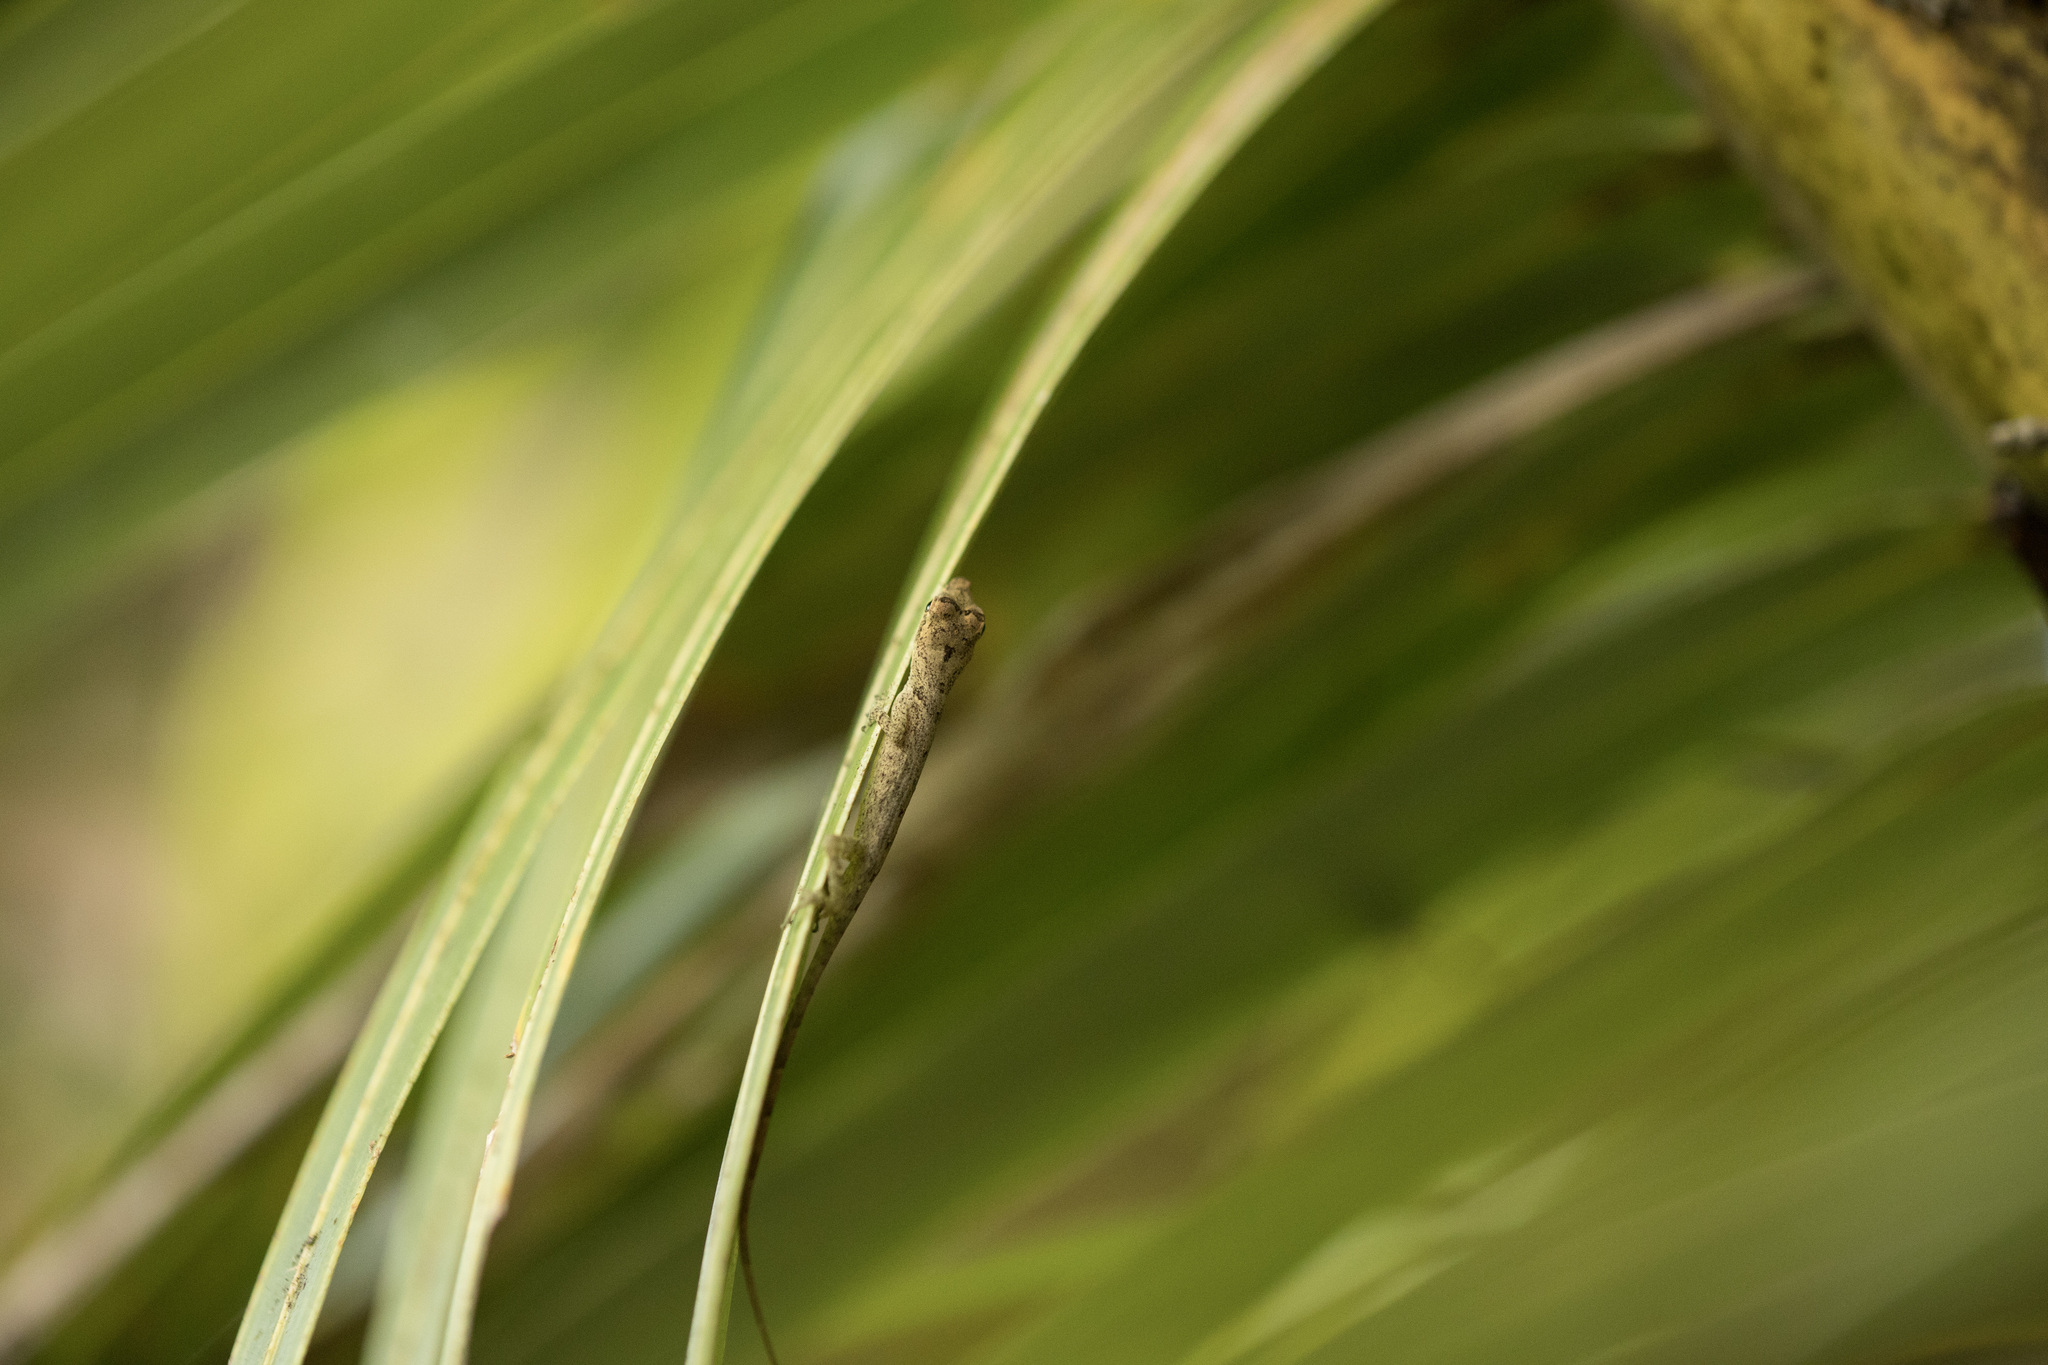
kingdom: Animalia
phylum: Chordata
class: Squamata
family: Dactyloidae
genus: Anolis
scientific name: Anolis fuscoauratus
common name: Brown-eared anole
